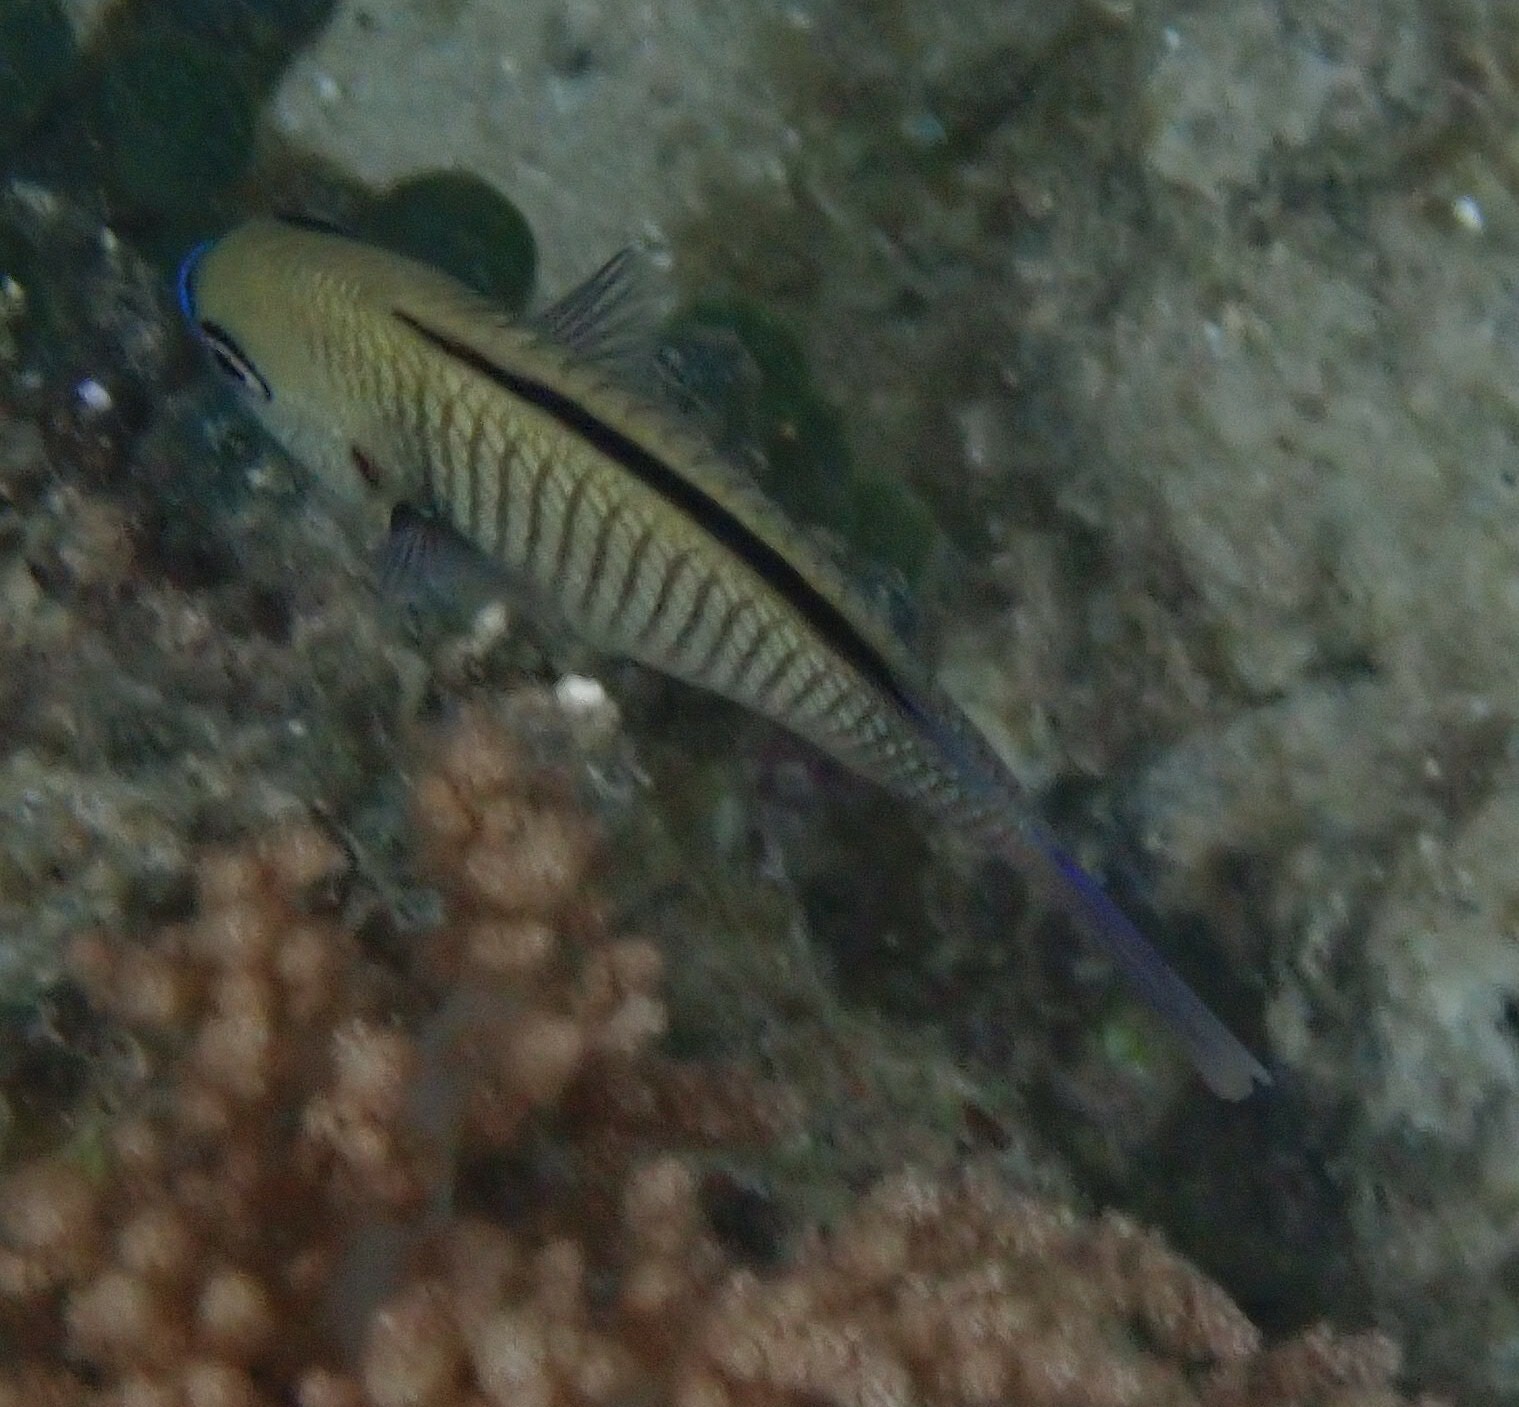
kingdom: Animalia
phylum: Chordata
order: Perciformes
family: Pomacentridae
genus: Dascyllus
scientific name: Dascyllus reticulatus
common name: Reticulated dascyllus
